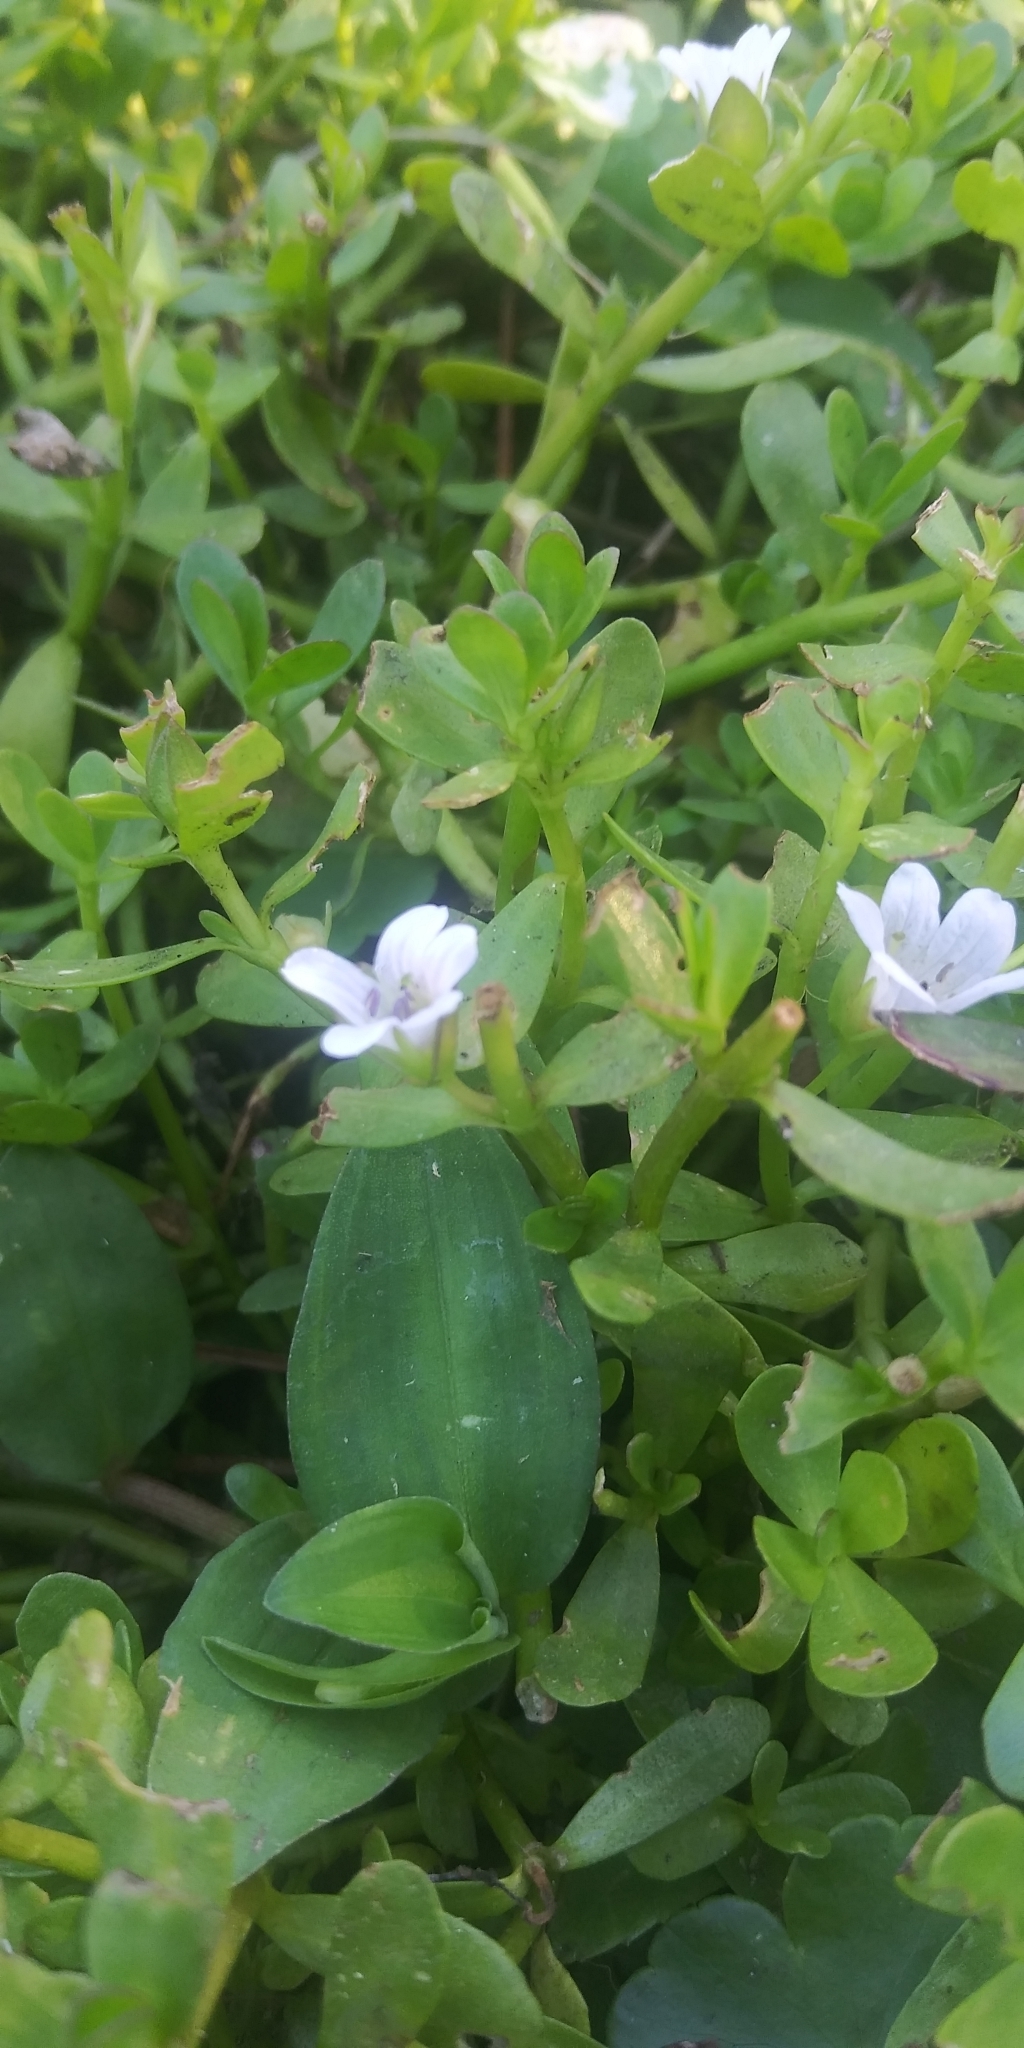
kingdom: Plantae
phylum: Tracheophyta
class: Magnoliopsida
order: Lamiales
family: Plantaginaceae
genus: Bacopa
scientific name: Bacopa monnieri
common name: Indian-pennywort
